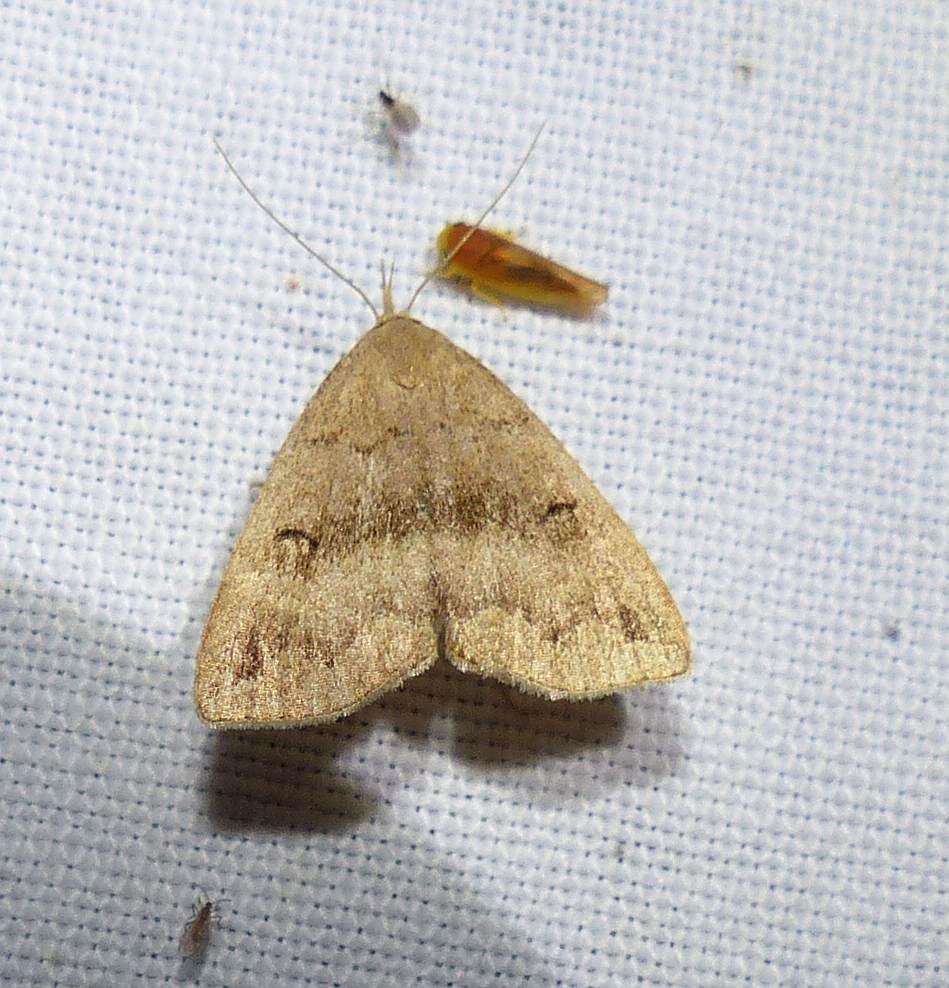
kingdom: Animalia
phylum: Arthropoda
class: Insecta
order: Lepidoptera
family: Erebidae
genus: Phalaenostola
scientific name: Phalaenostola eumelusalis
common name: Dark phalaenostola moth
